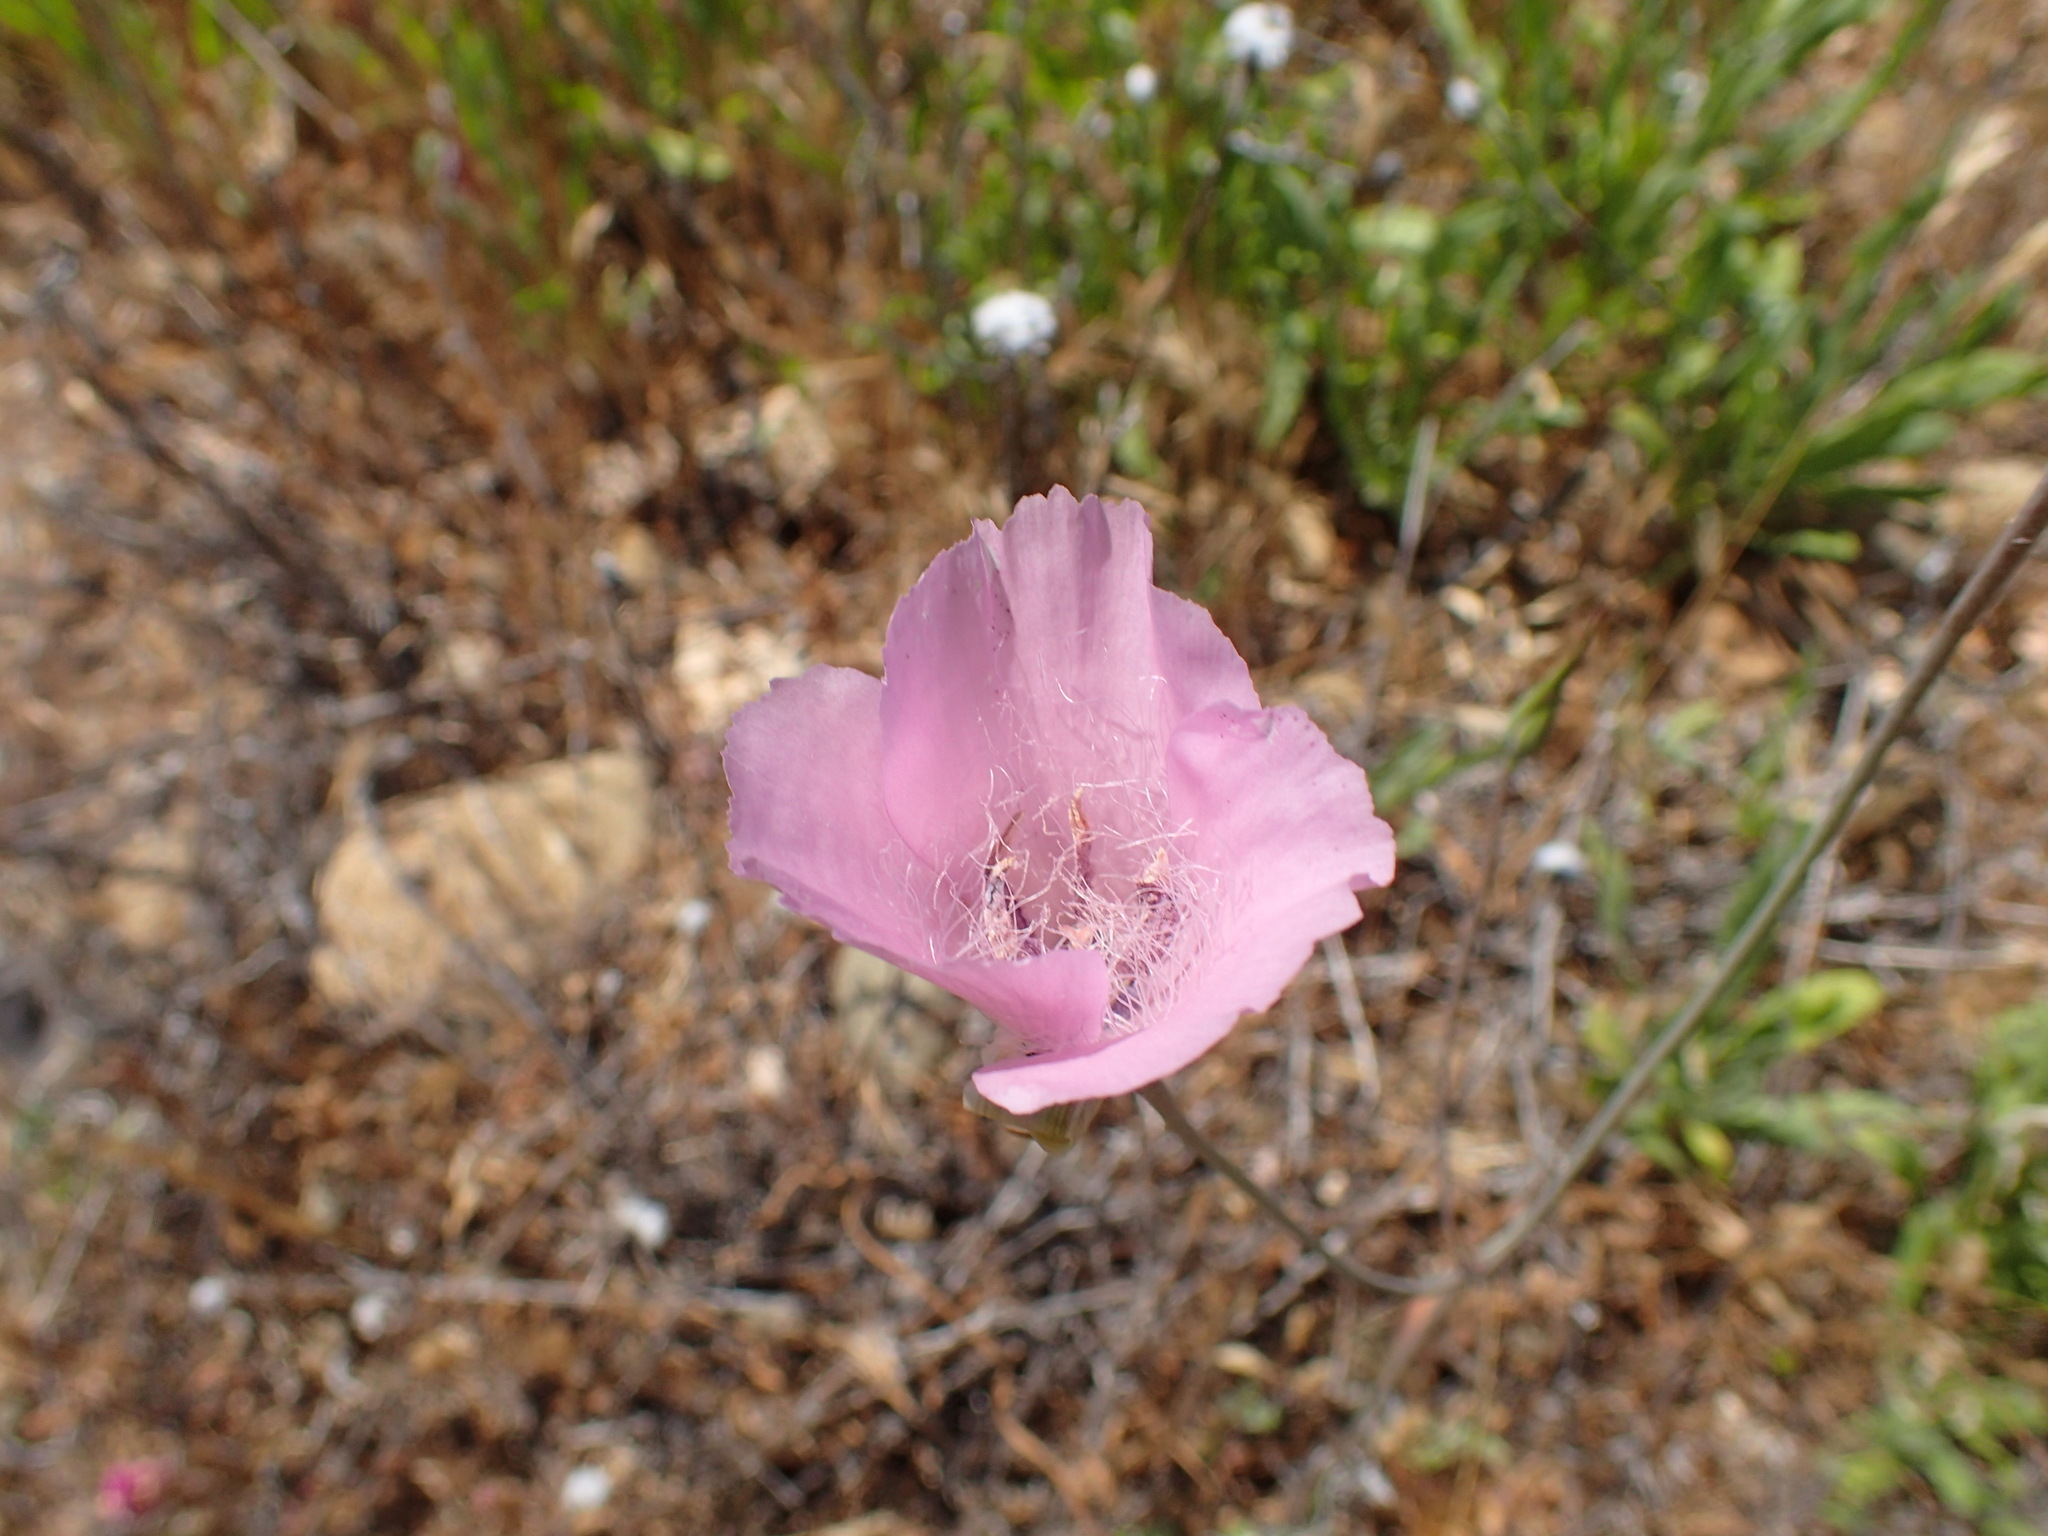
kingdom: Plantae
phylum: Tracheophyta
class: Liliopsida
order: Liliales
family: Liliaceae
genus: Calochortus
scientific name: Calochortus splendens
